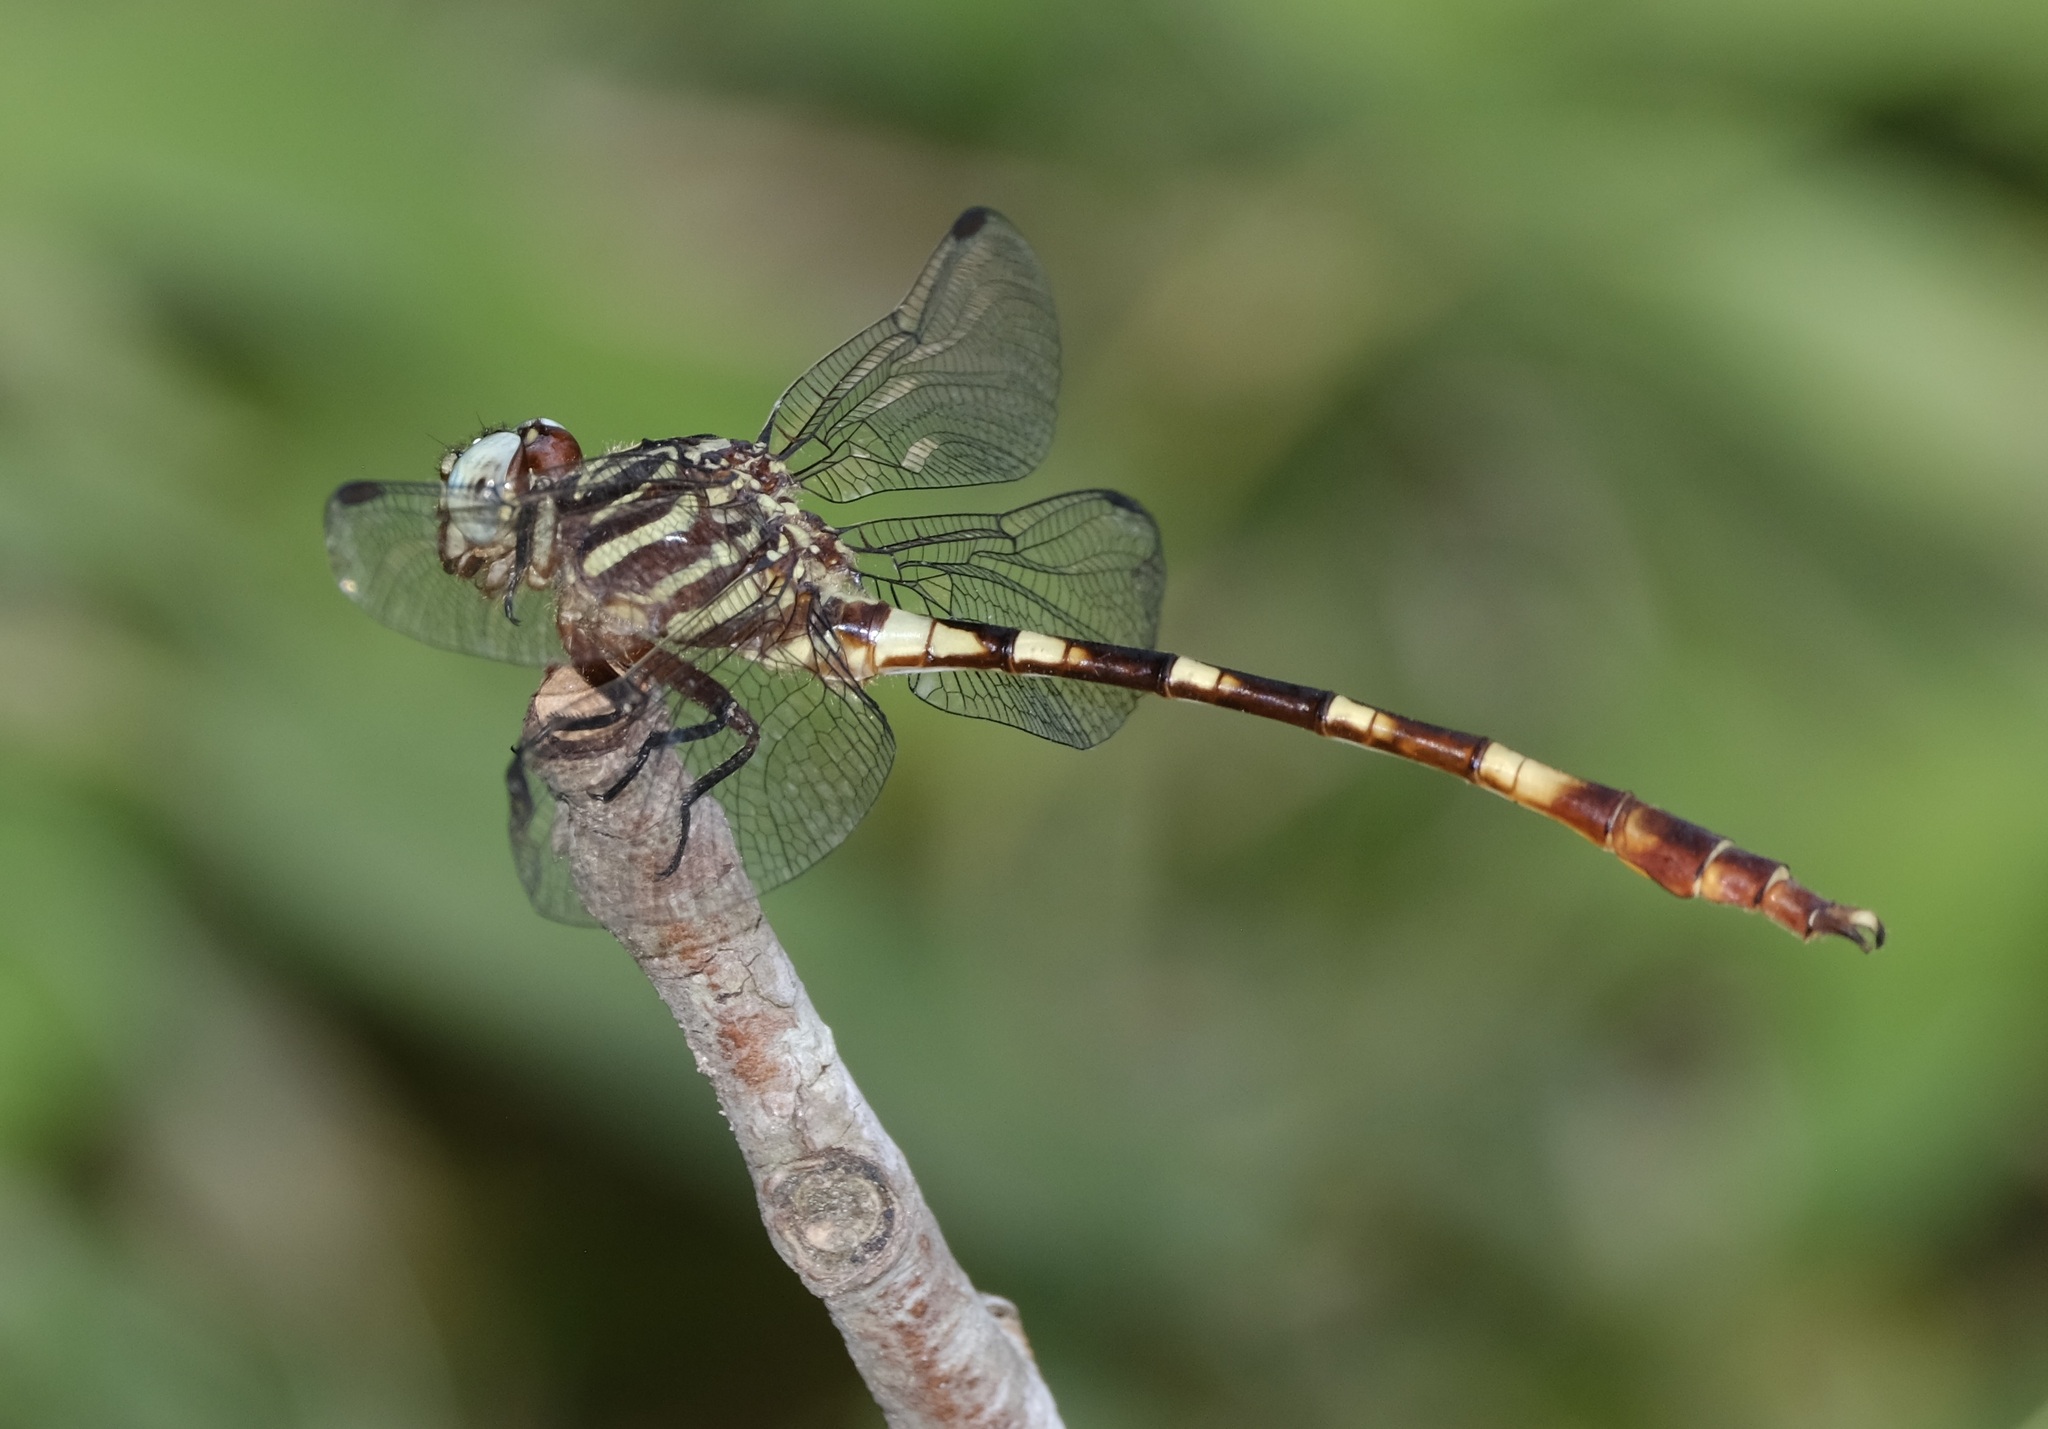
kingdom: Animalia
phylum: Arthropoda
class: Insecta
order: Odonata
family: Gomphidae
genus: Aphylla
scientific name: Aphylla angustifolia
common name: Broad-striped forceptail
